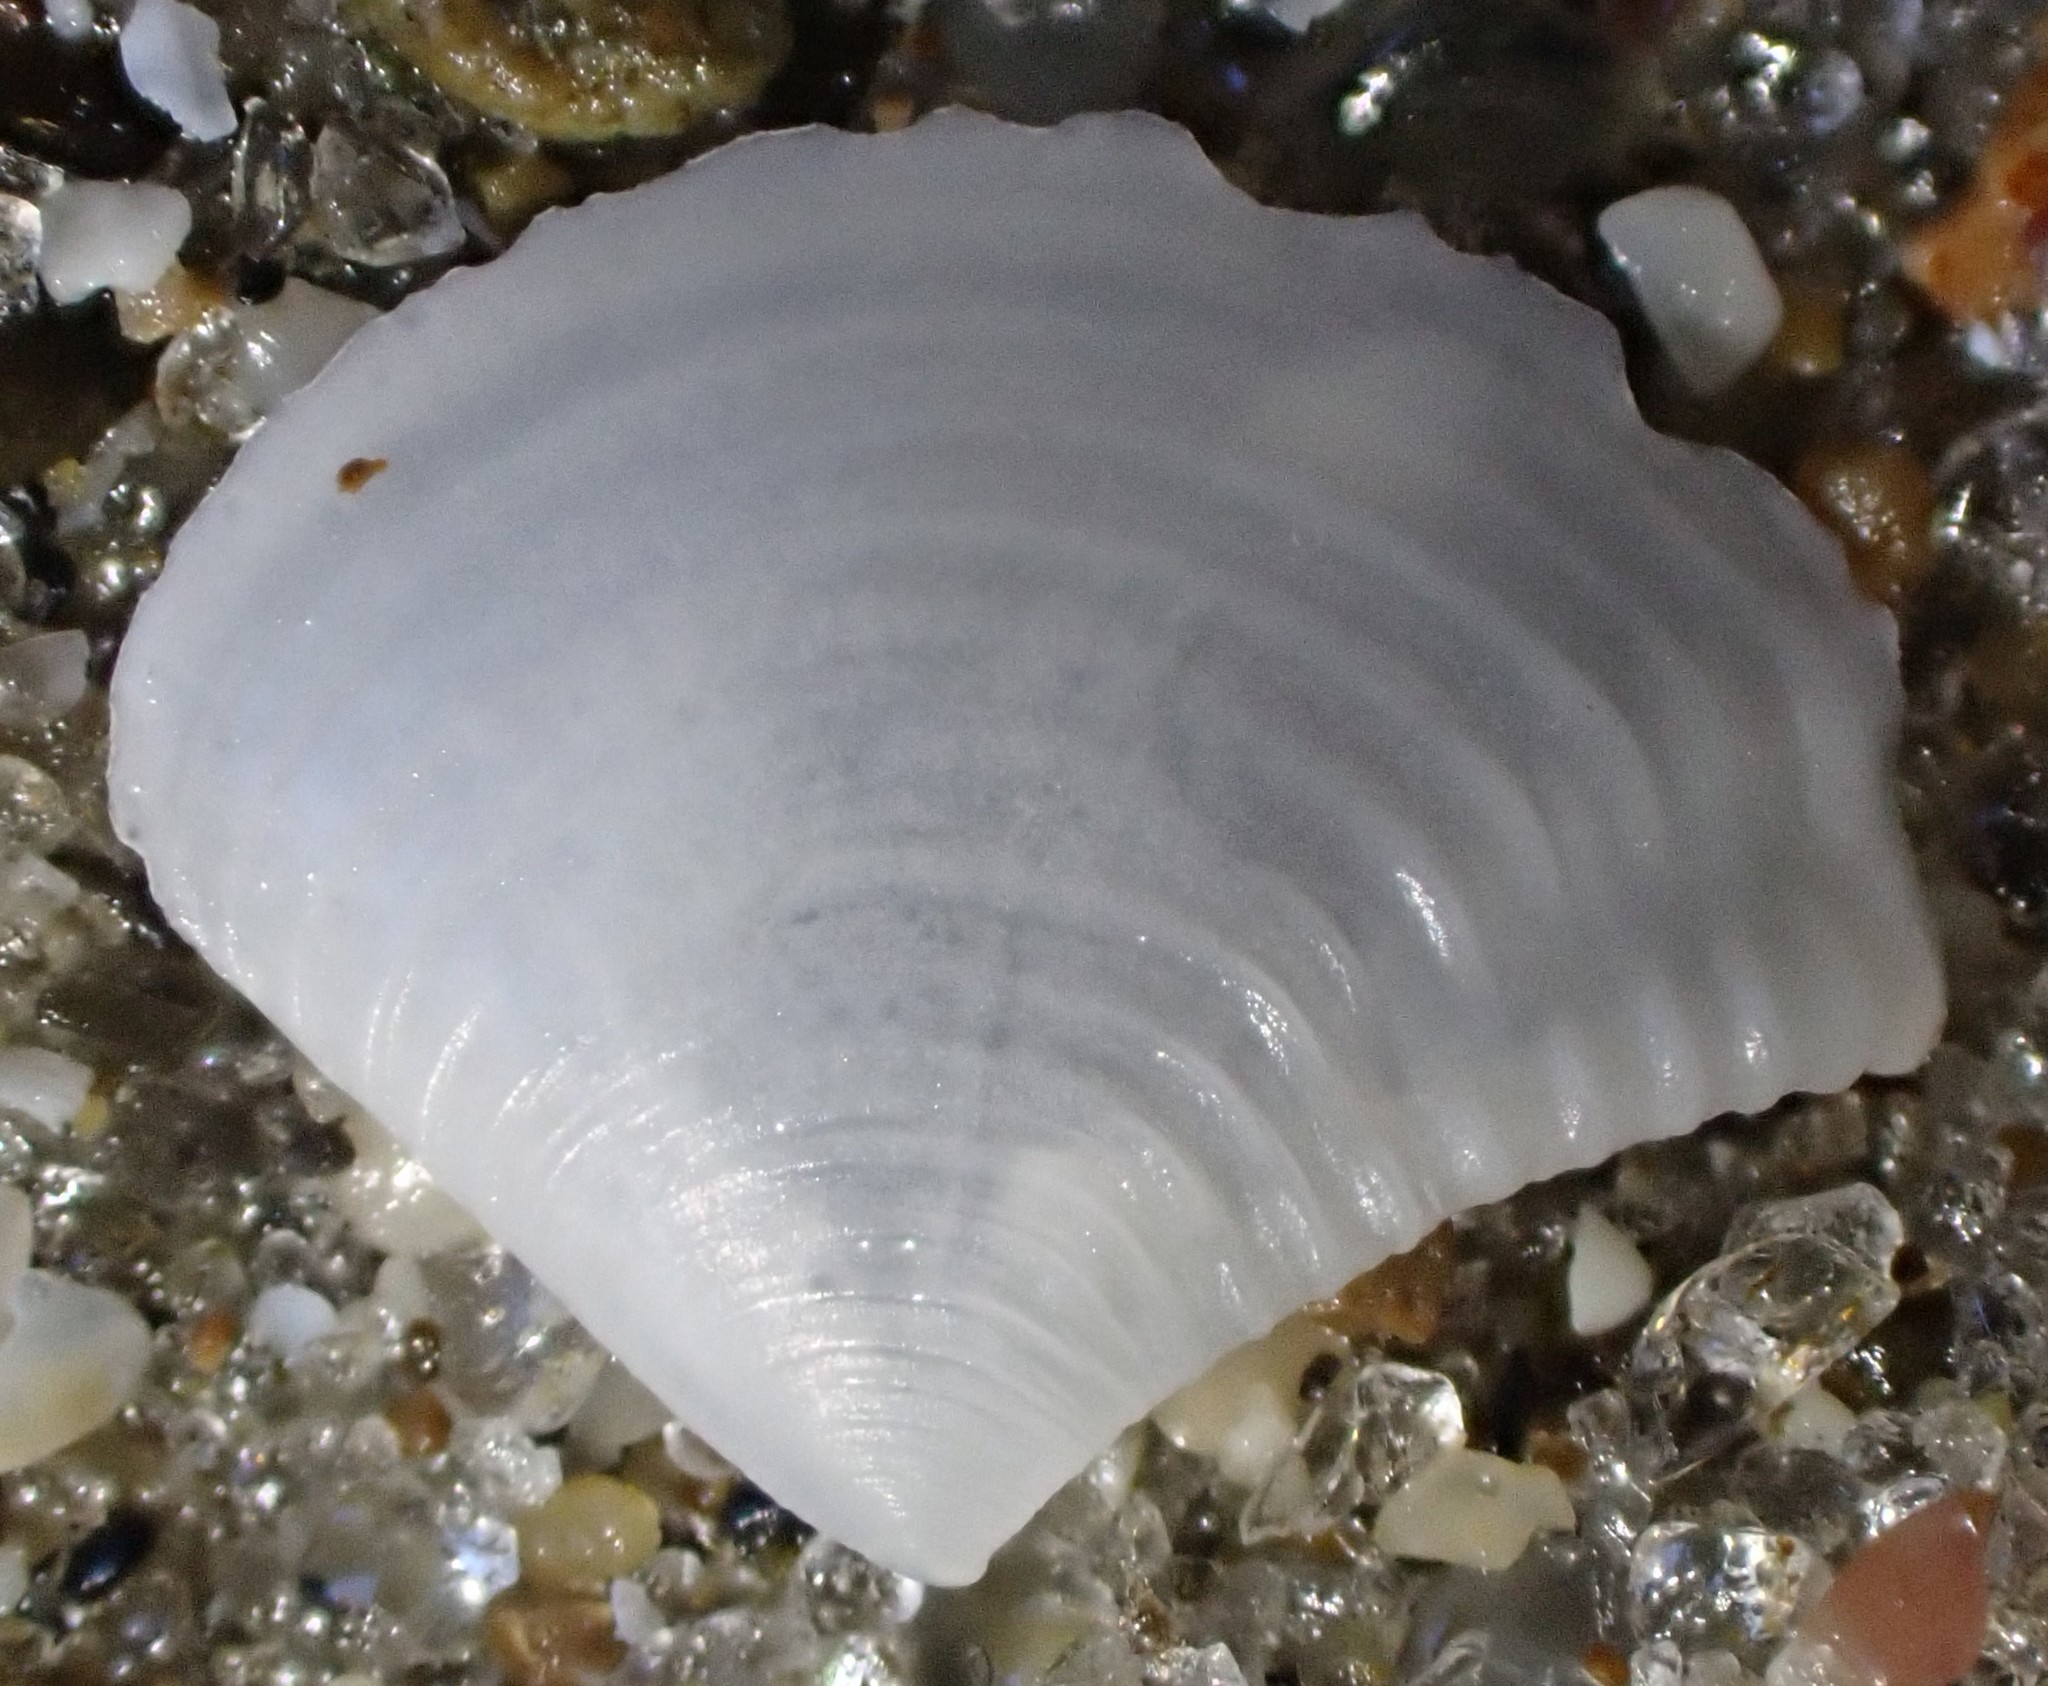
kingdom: Animalia
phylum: Mollusca
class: Bivalvia
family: Myochamidae
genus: Myadora
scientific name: Myadora striata
